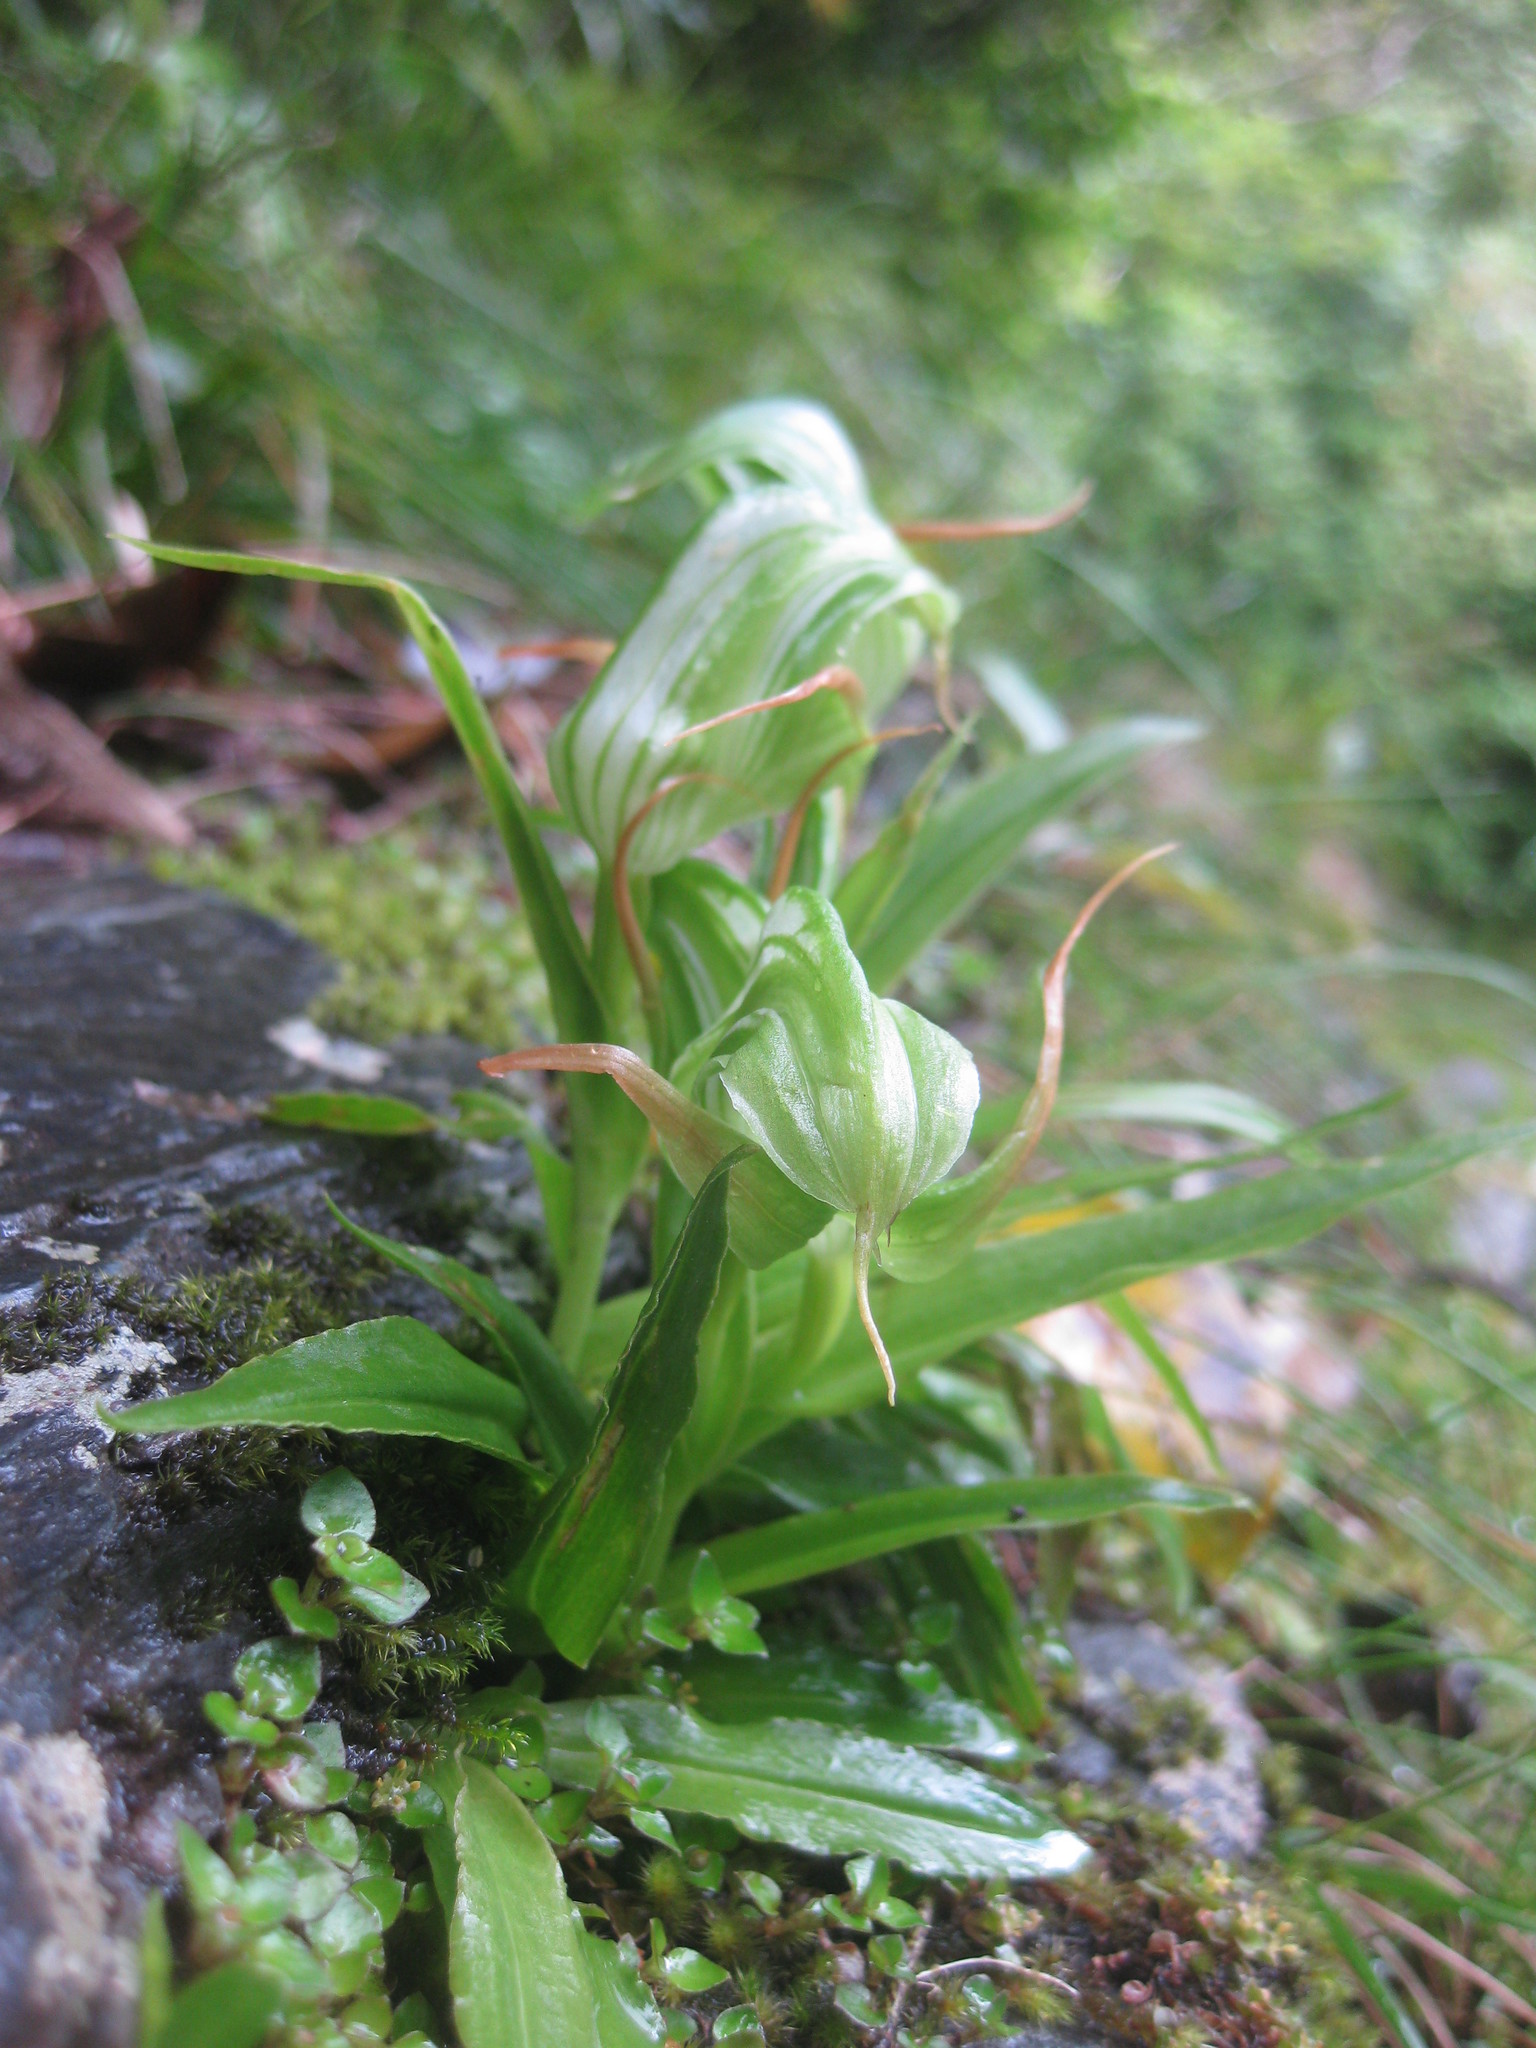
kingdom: Plantae
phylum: Tracheophyta
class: Liliopsida
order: Asparagales
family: Orchidaceae
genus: Pterostylis
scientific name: Pterostylis australis
